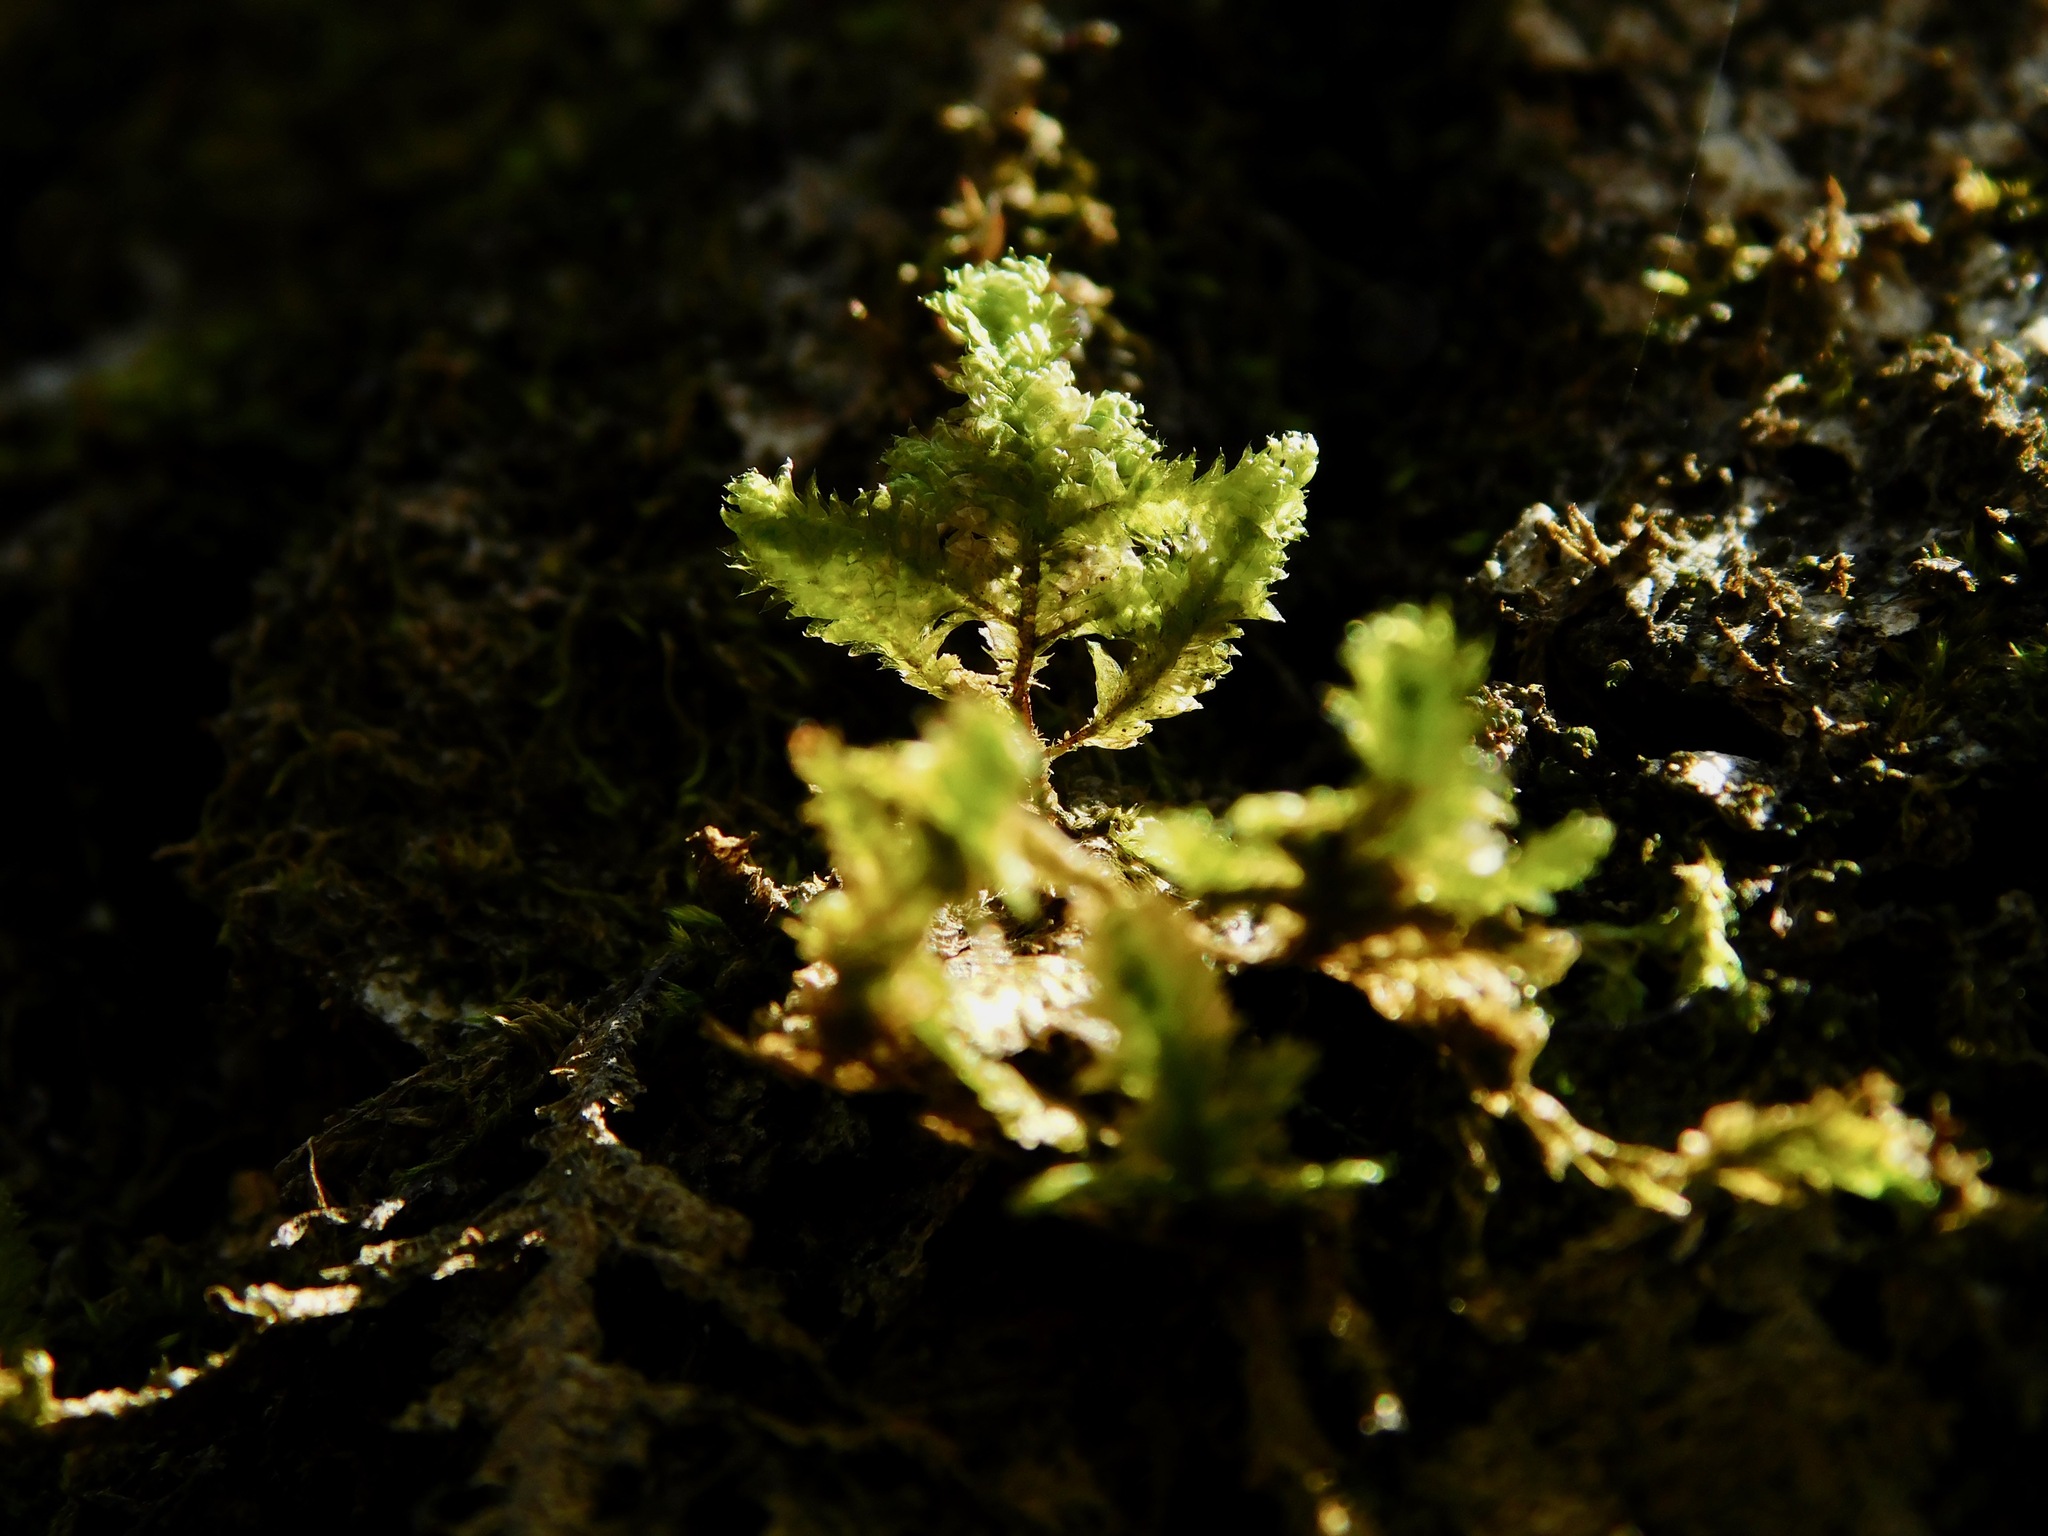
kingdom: Plantae
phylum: Bryophyta
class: Bryopsida
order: Hypnales
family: Neckeraceae
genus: Neckera
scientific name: Neckera pennata
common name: Feathery neckera
